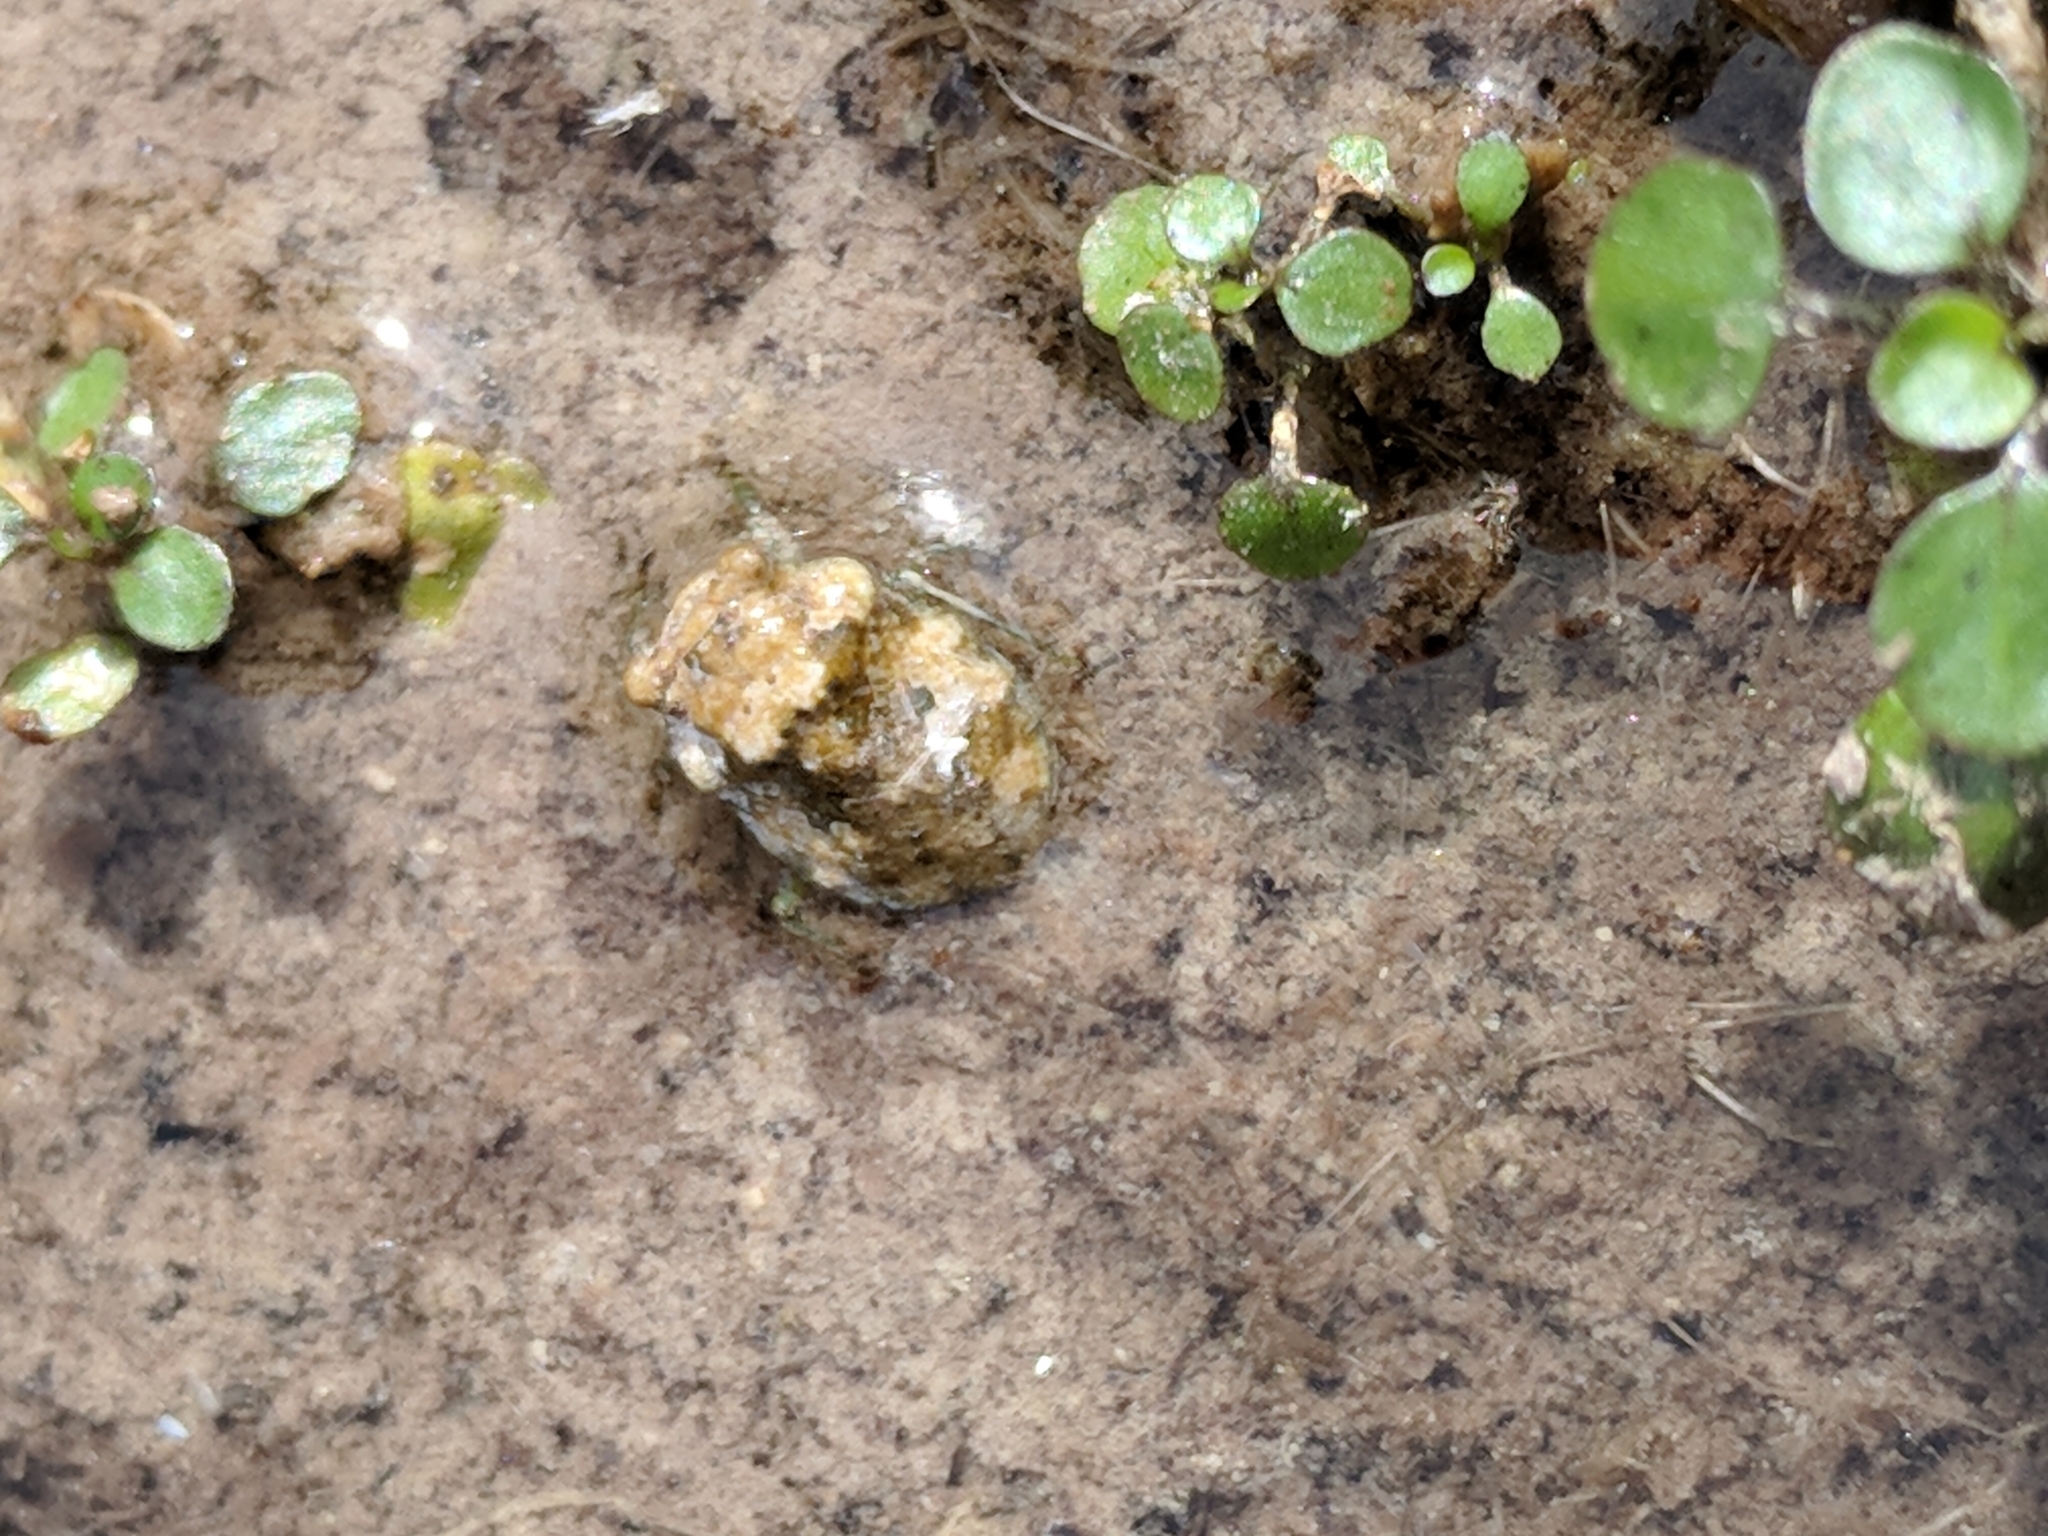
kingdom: Animalia
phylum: Arthropoda
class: Insecta
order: Hemiptera
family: Gelastocoridae
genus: Gelastocoris
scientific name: Gelastocoris rotundatus
